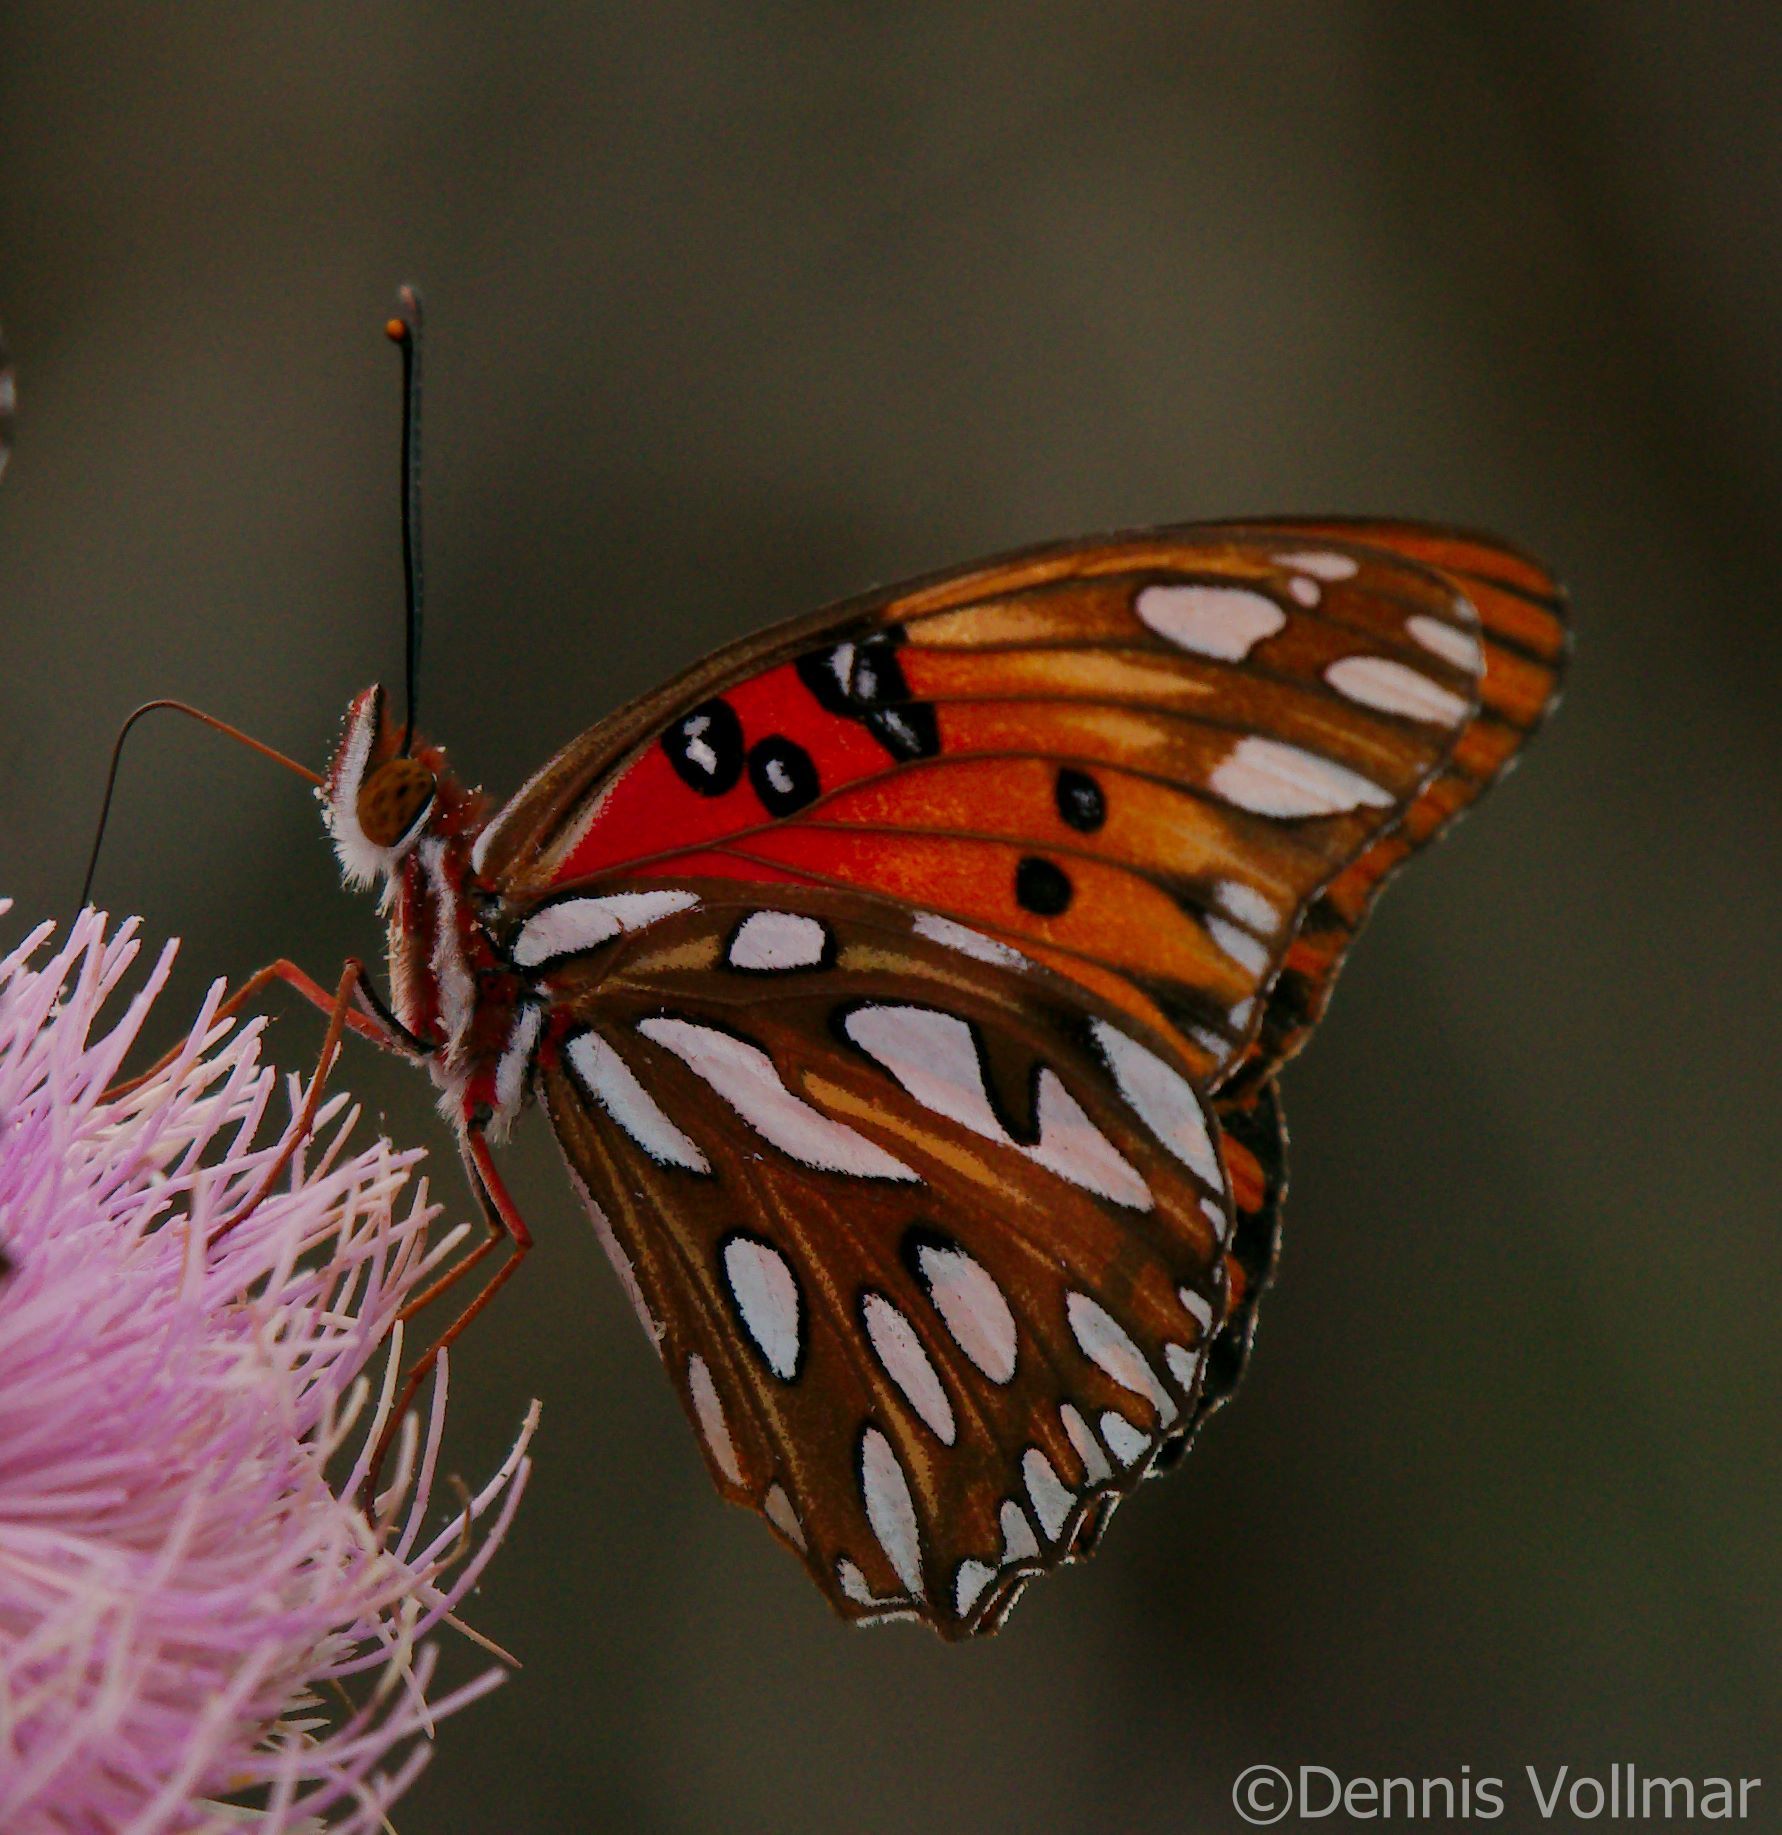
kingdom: Animalia
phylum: Arthropoda
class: Insecta
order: Lepidoptera
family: Nymphalidae
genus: Dione
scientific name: Dione vanillae
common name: Gulf fritillary
